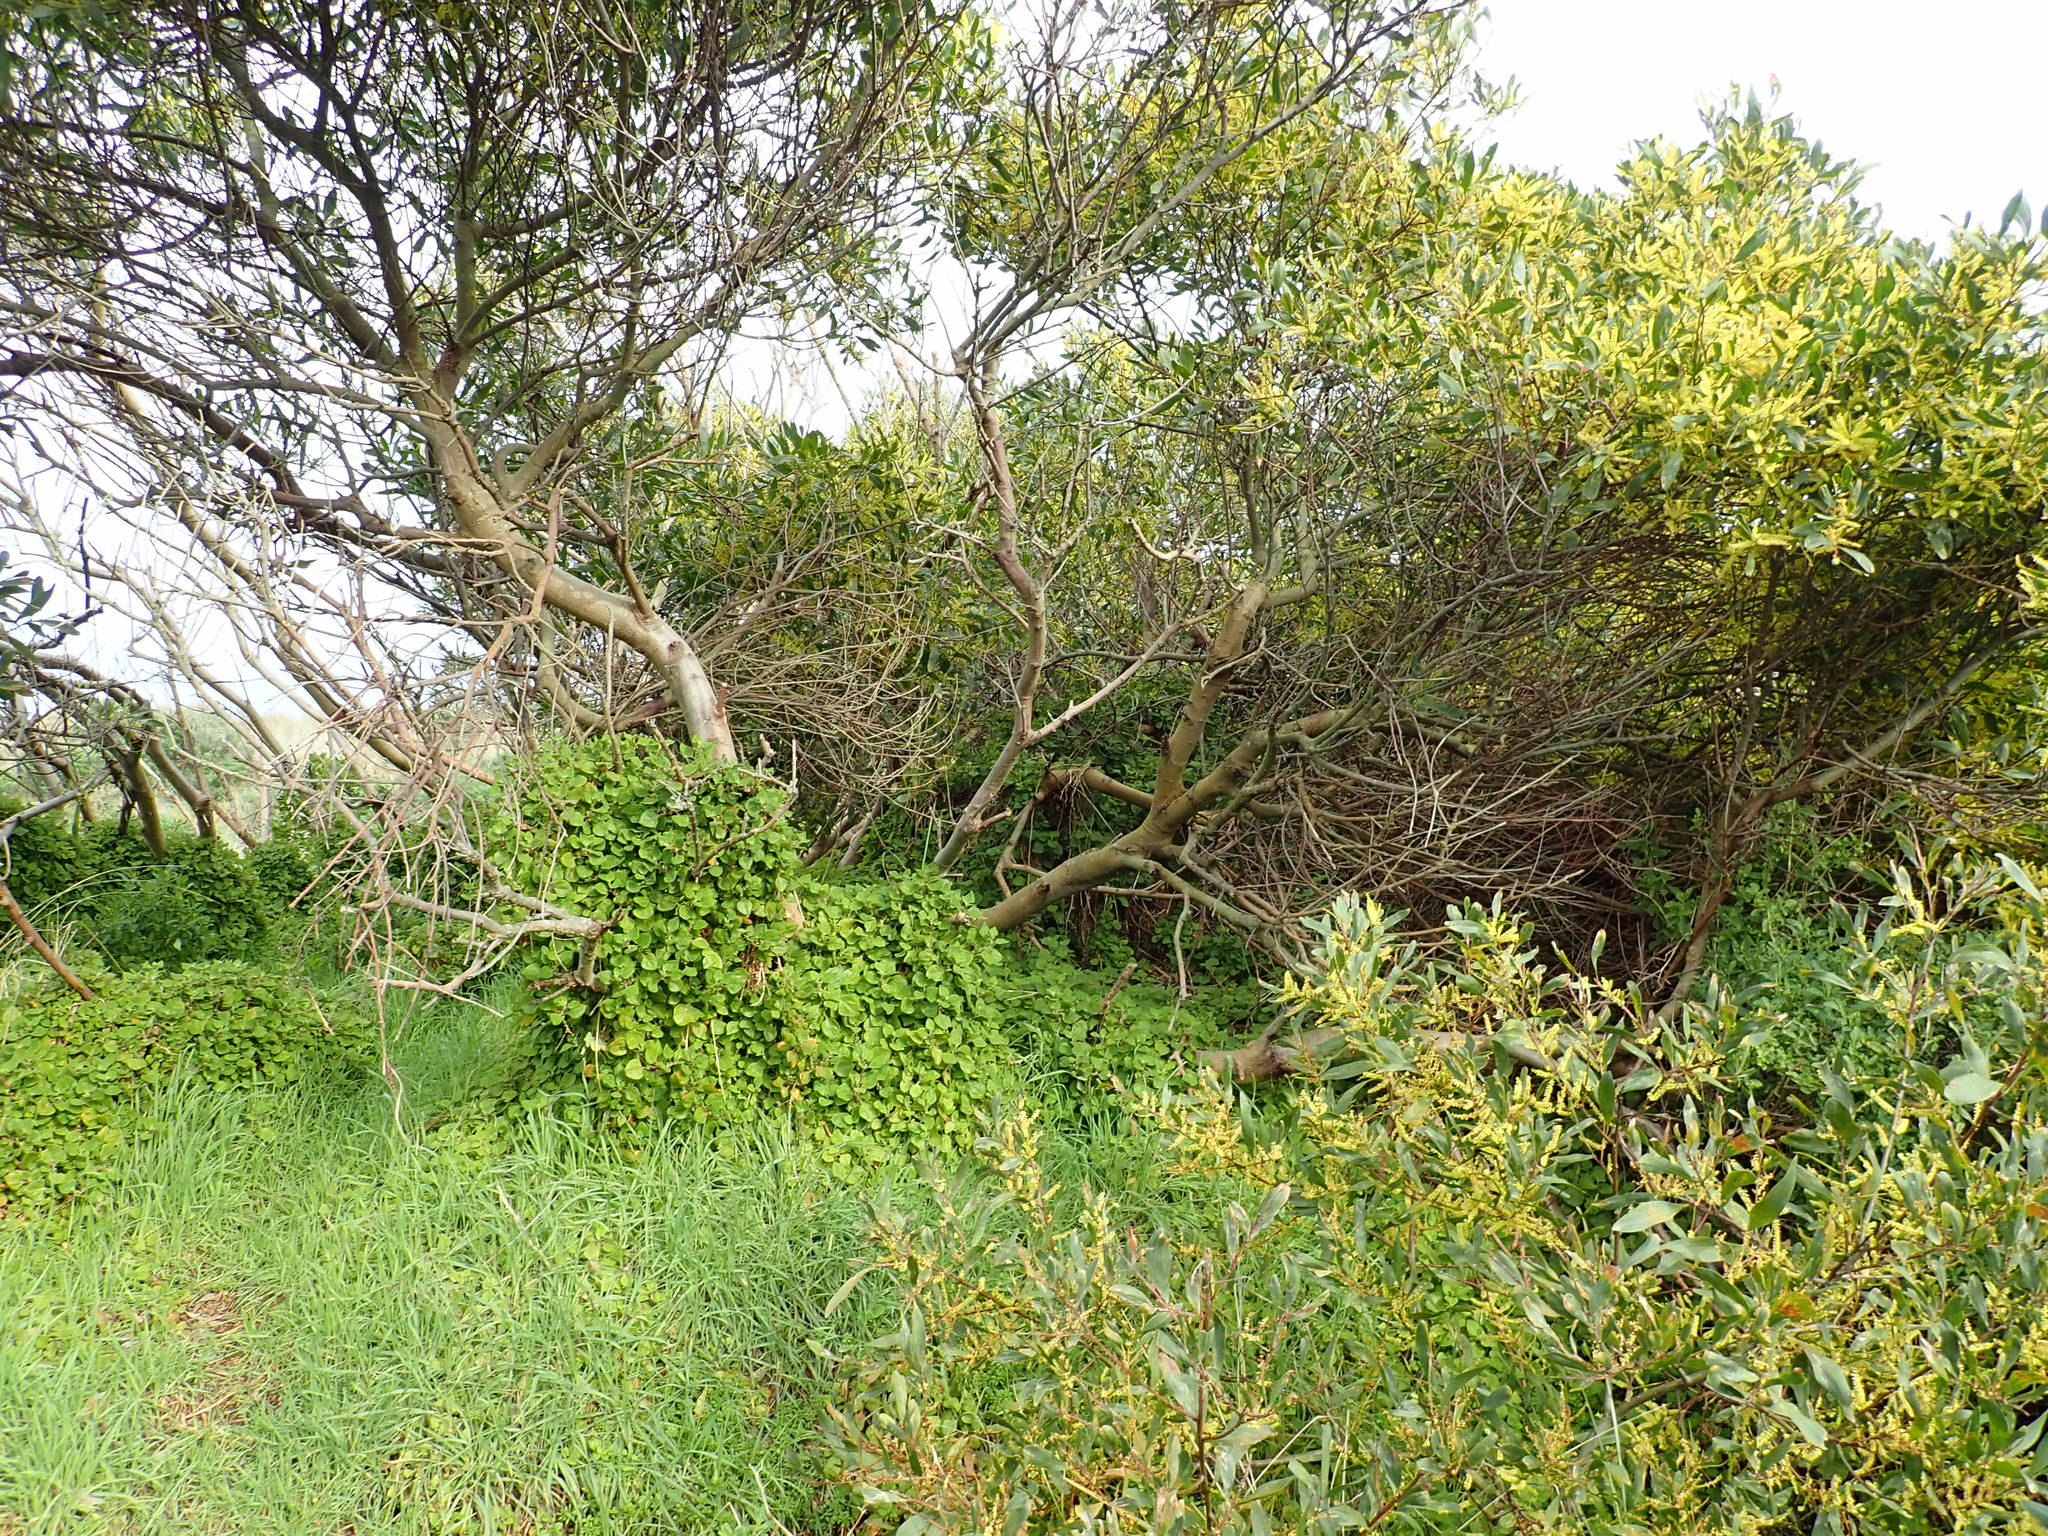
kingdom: Plantae
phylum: Tracheophyta
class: Magnoliopsida
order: Fabales
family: Fabaceae
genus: Acacia
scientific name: Acacia longifolia
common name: Sydney golden wattle
